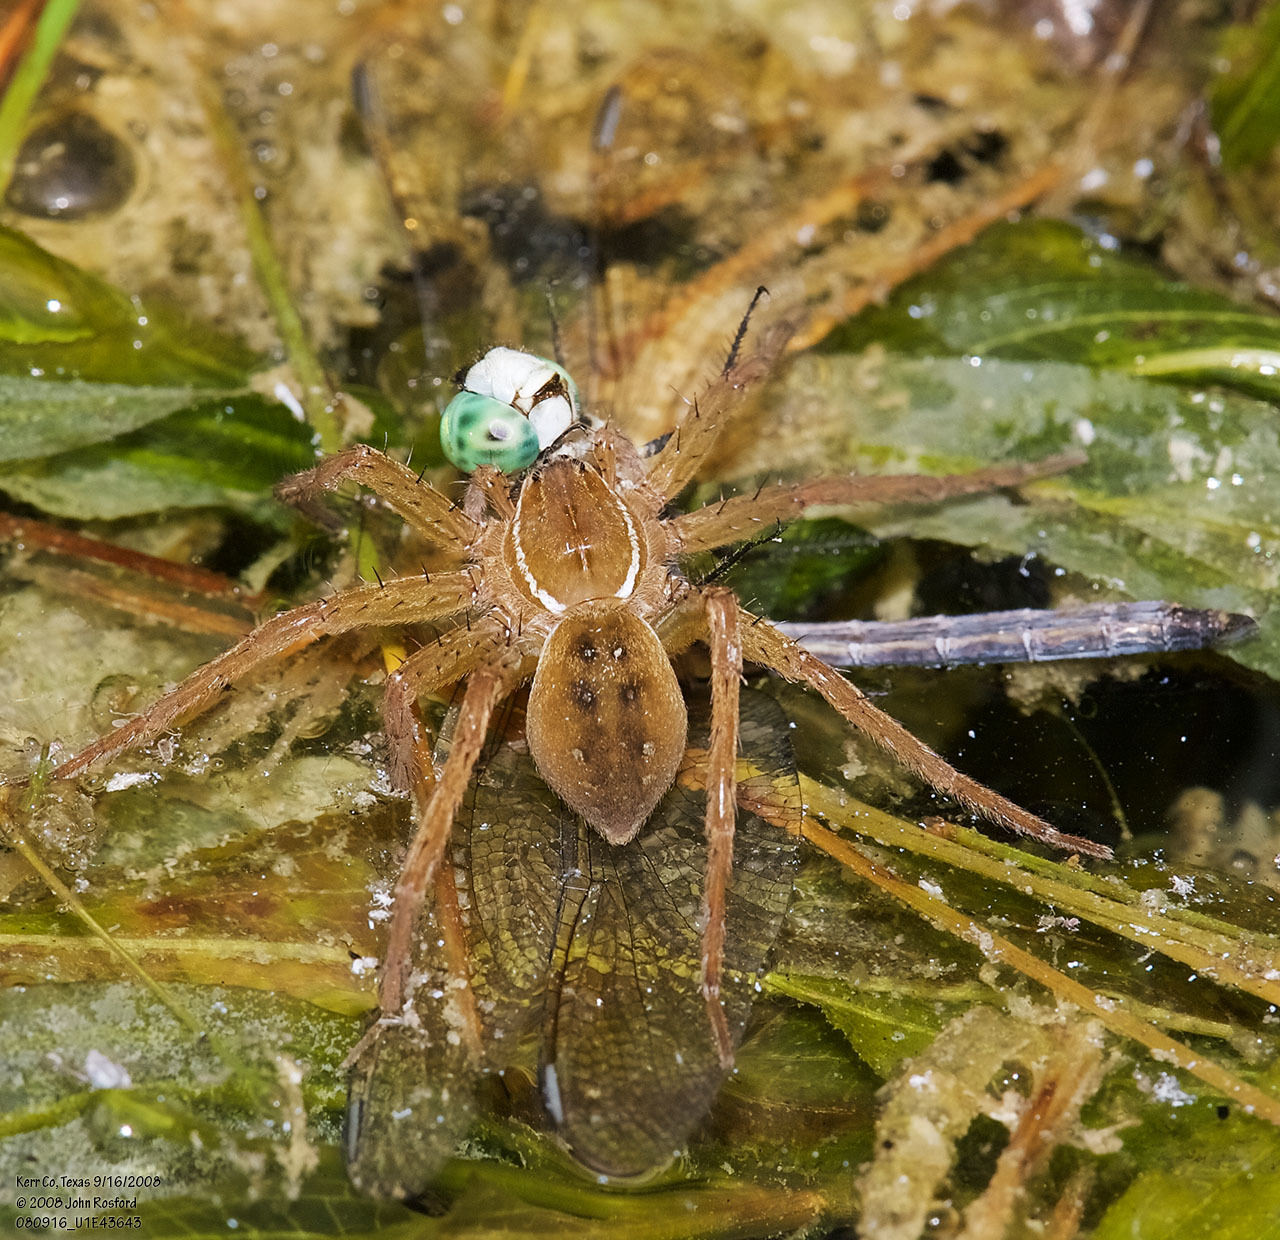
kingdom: Animalia
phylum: Arthropoda
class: Arachnida
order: Araneae
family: Pisauridae
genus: Dolomedes
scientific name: Dolomedes triton
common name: Six-spotted fishing spider
